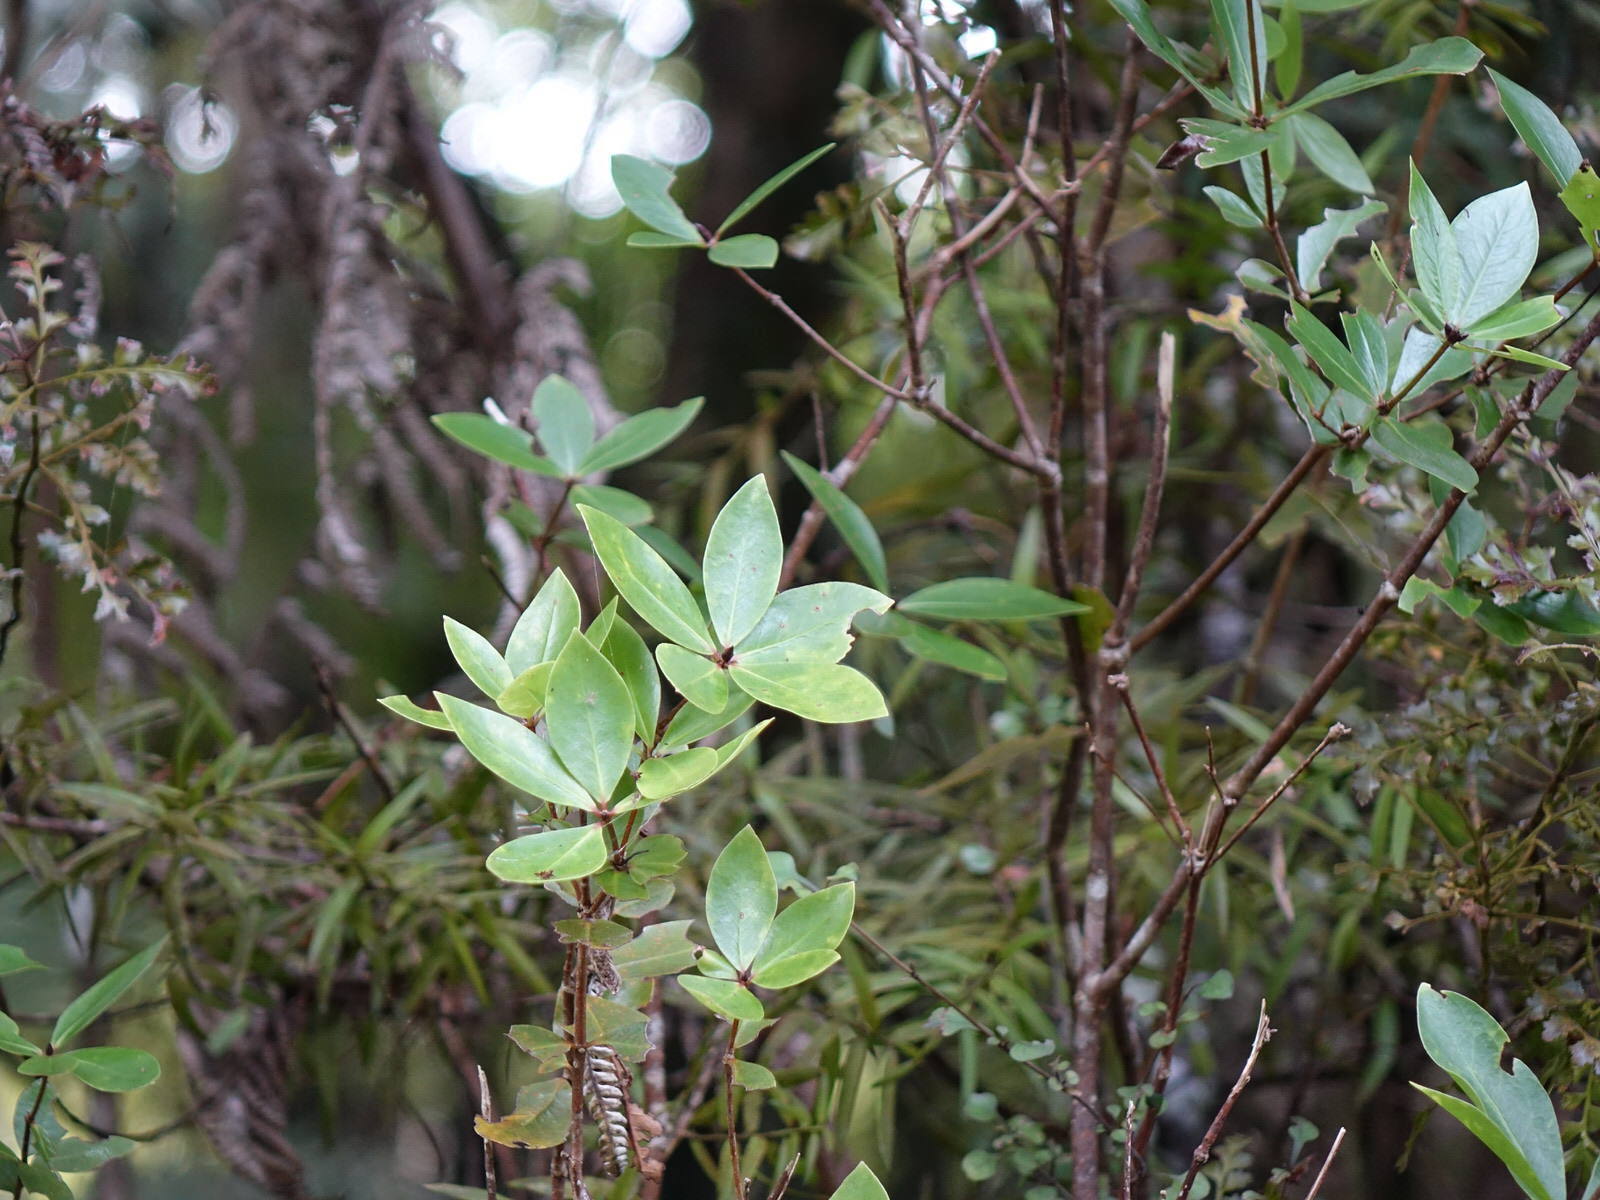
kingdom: Plantae
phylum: Tracheophyta
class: Magnoliopsida
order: Apiales
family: Pittosporaceae
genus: Pittosporum
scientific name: Pittosporum cornifolium
